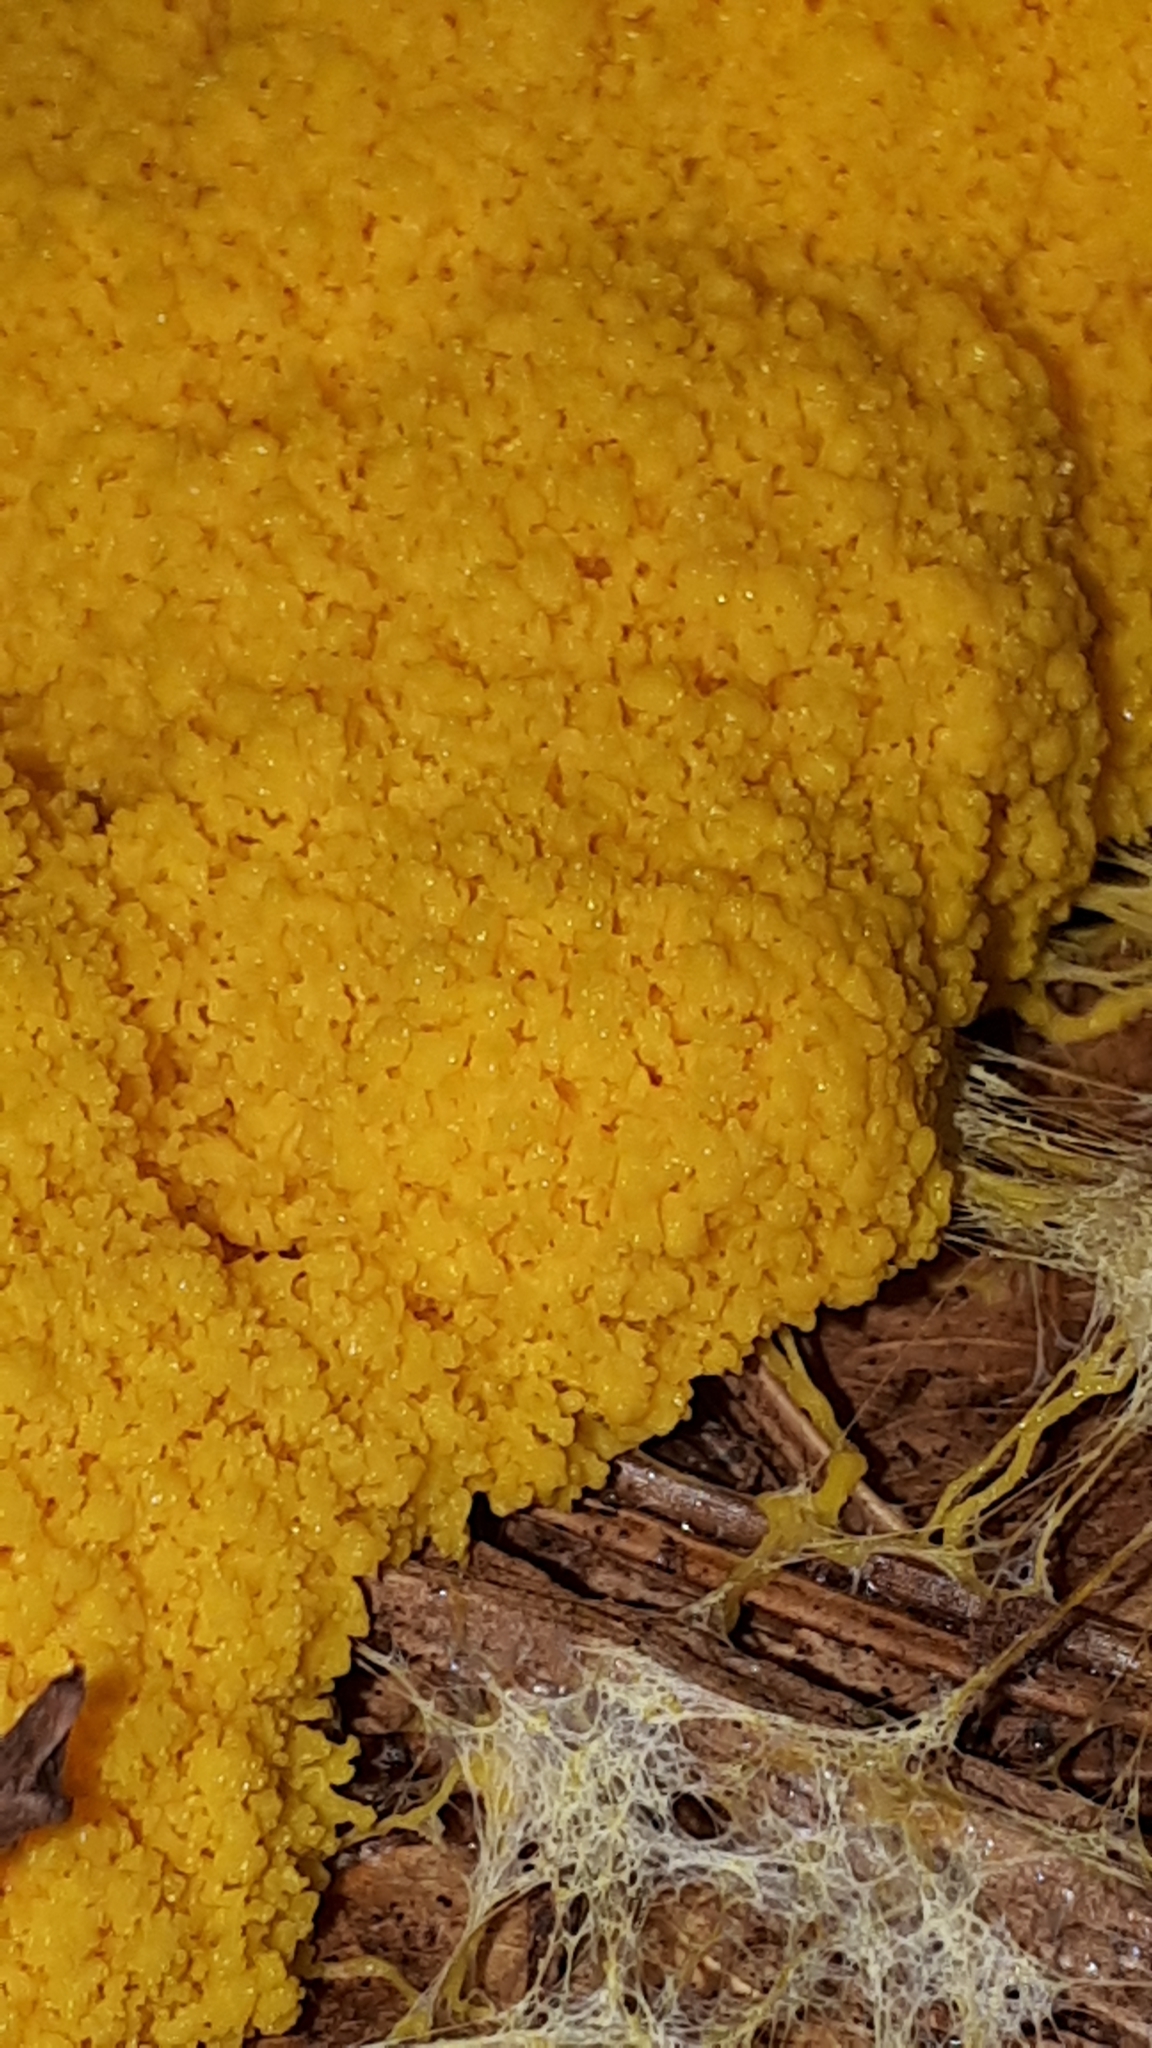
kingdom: Protozoa
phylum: Mycetozoa
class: Myxomycetes
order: Physarales
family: Physaraceae
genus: Fuligo
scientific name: Fuligo septica
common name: Dog vomit slime mold
